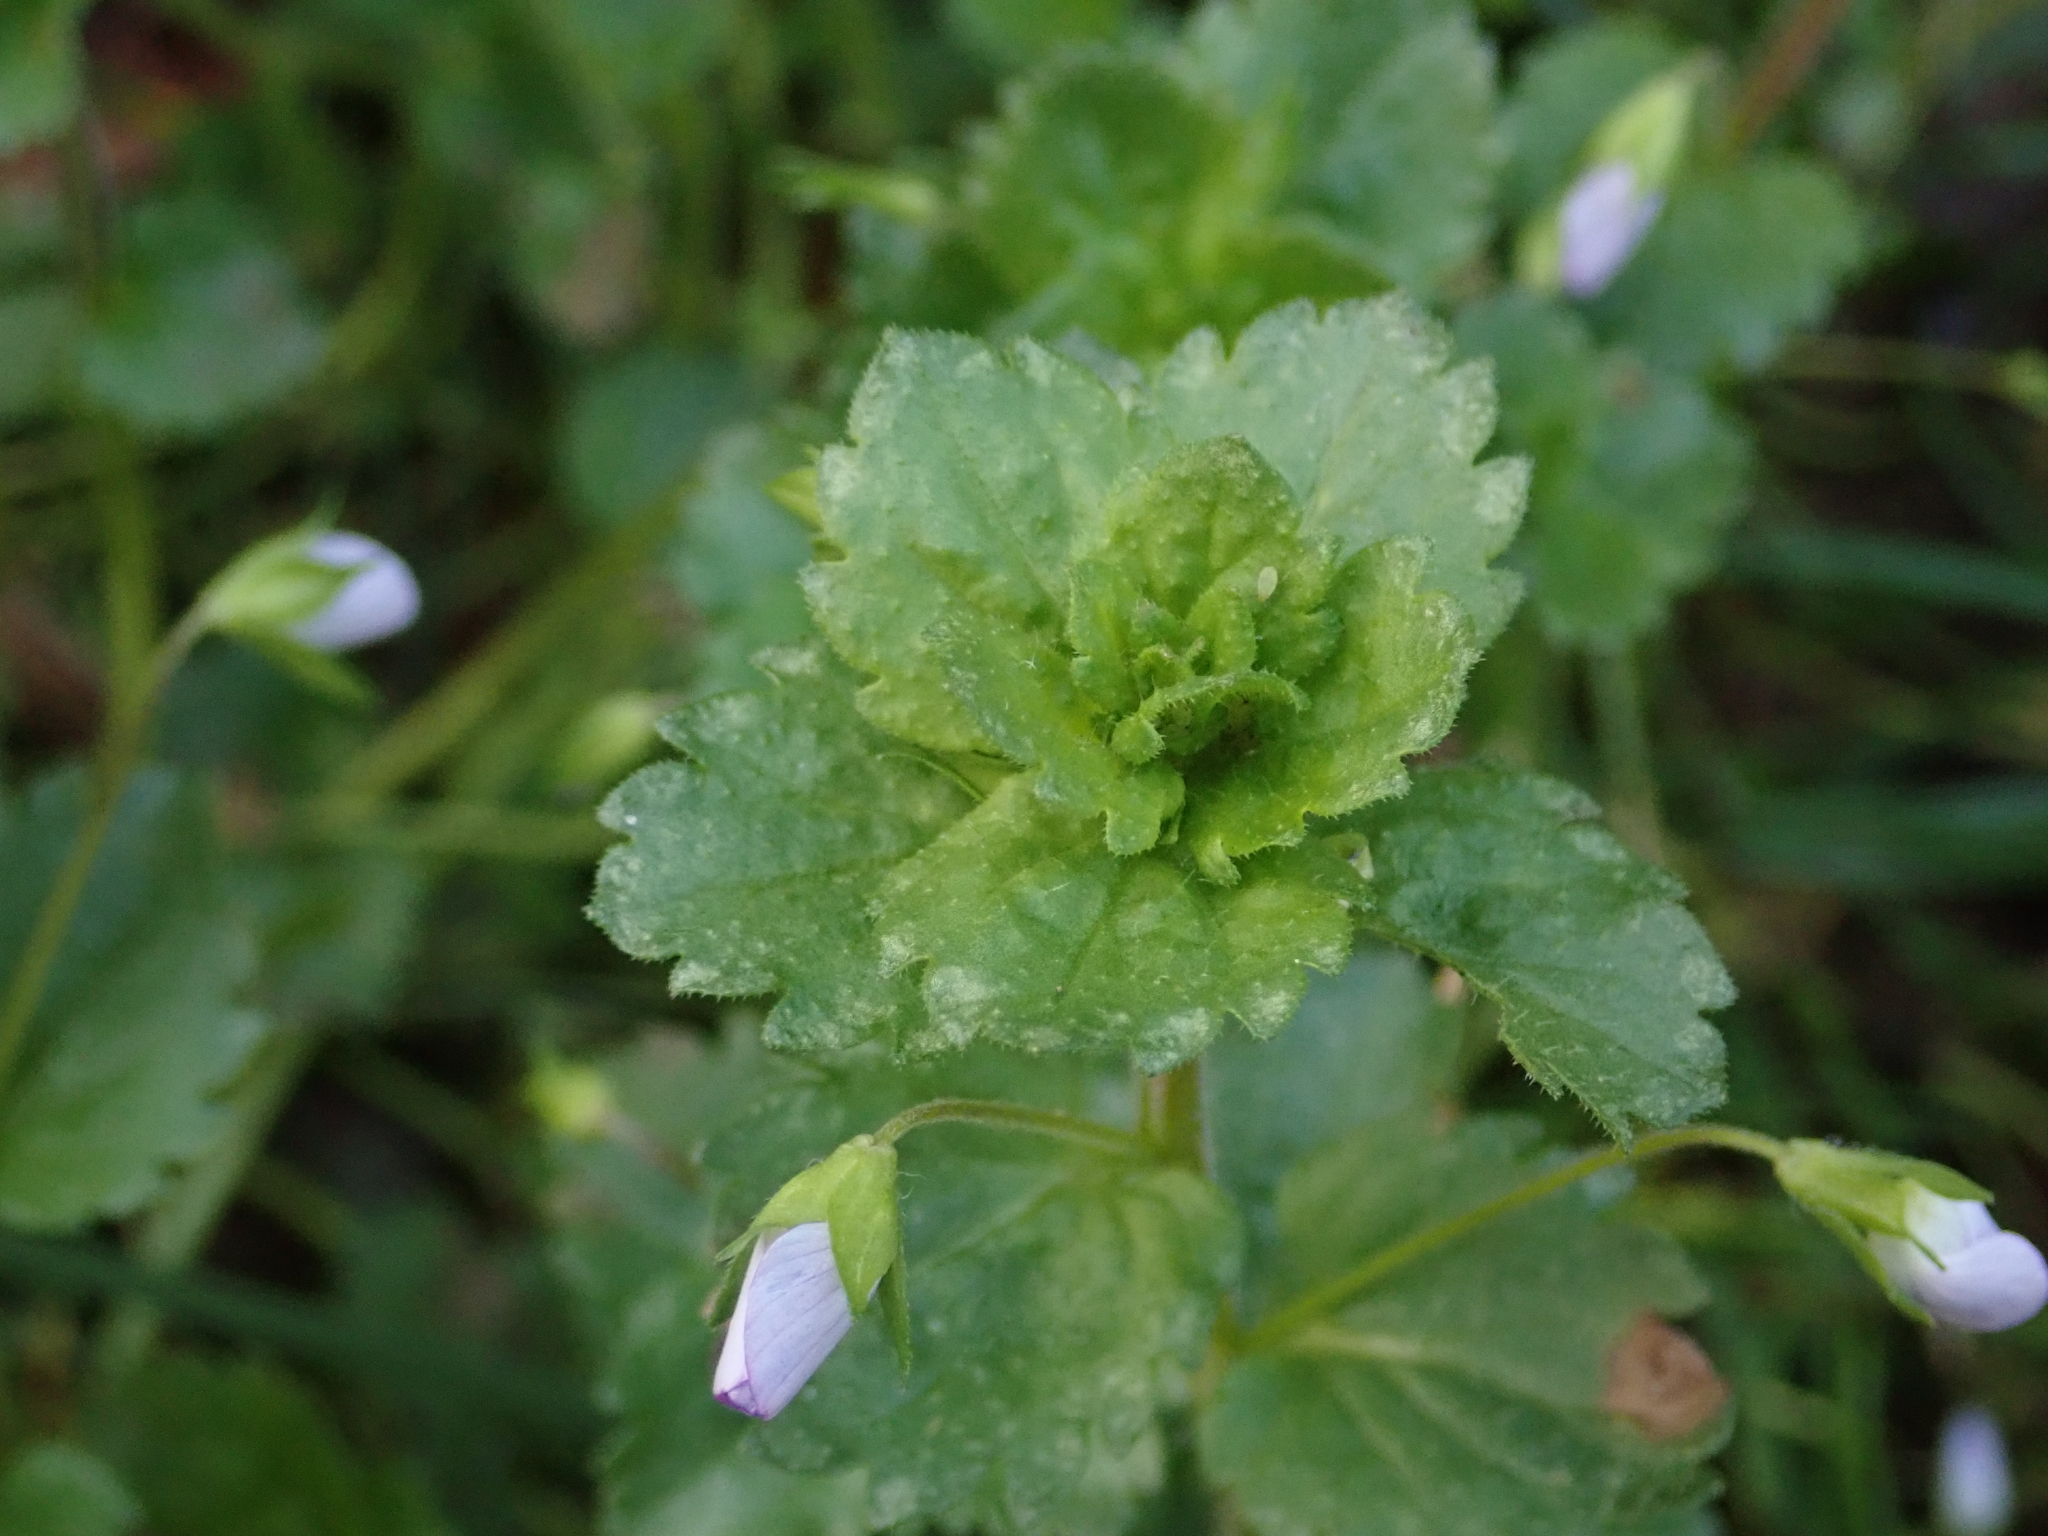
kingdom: Plantae
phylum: Tracheophyta
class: Magnoliopsida
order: Lamiales
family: Plantaginaceae
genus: Veronica
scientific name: Veronica persica
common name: Common field-speedwell
